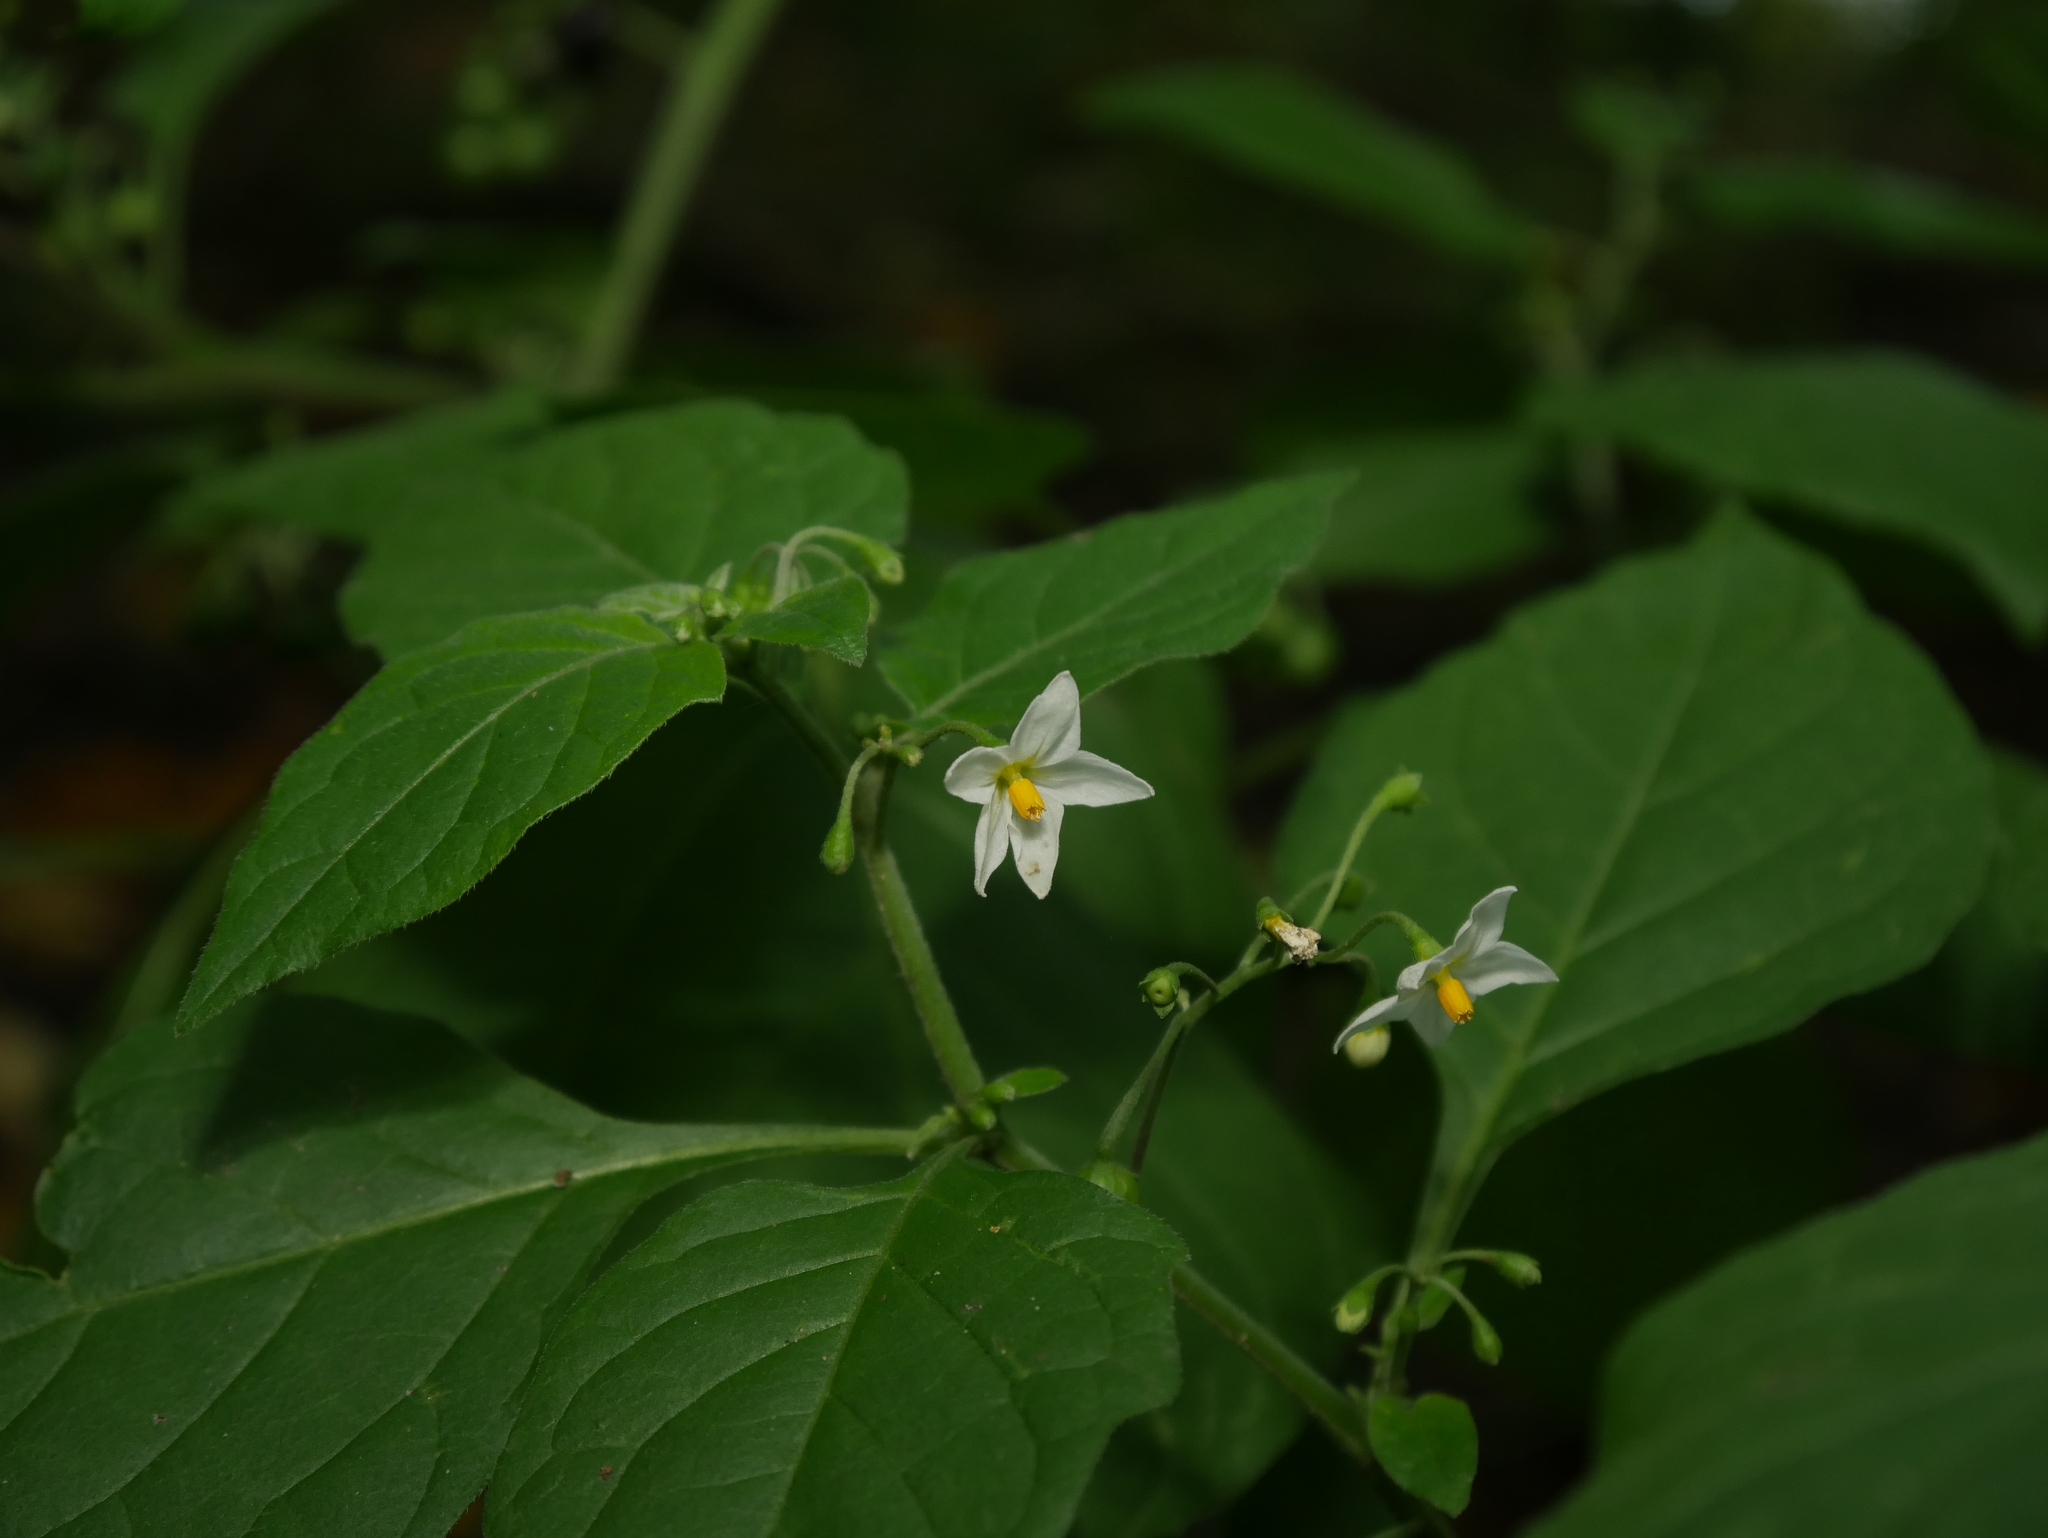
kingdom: Plantae
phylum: Tracheophyta
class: Magnoliopsida
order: Solanales
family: Solanaceae
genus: Solanum
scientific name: Solanum nigrum
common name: Black nightshade
